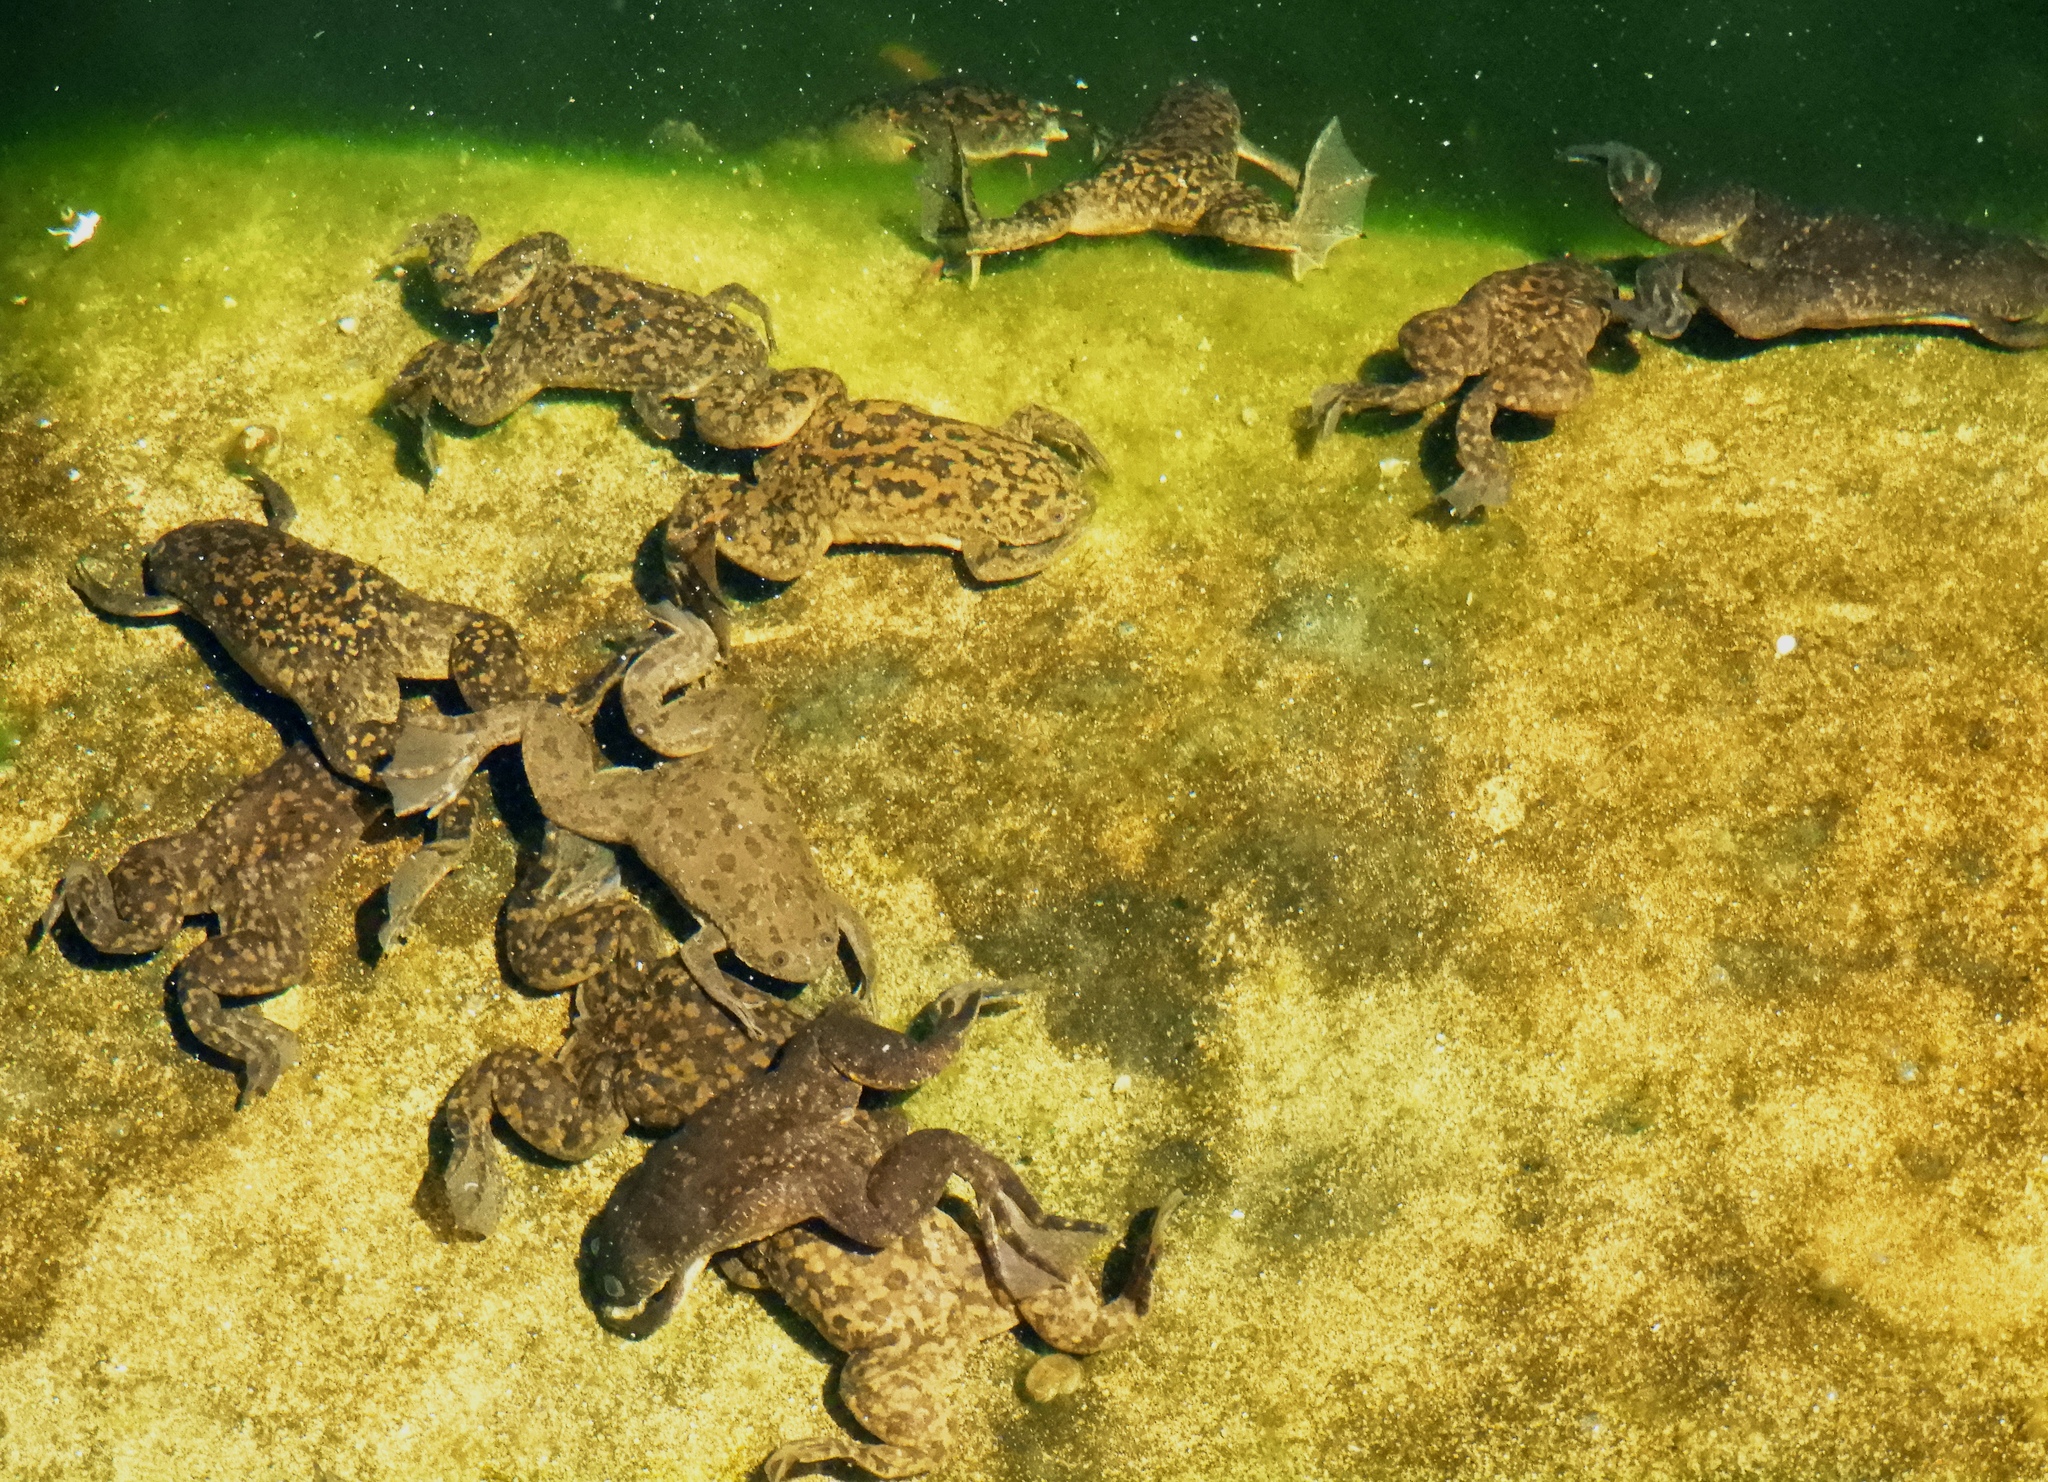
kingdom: Animalia
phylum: Chordata
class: Amphibia
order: Anura
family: Pipidae
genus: Xenopus
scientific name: Xenopus laevis
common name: African clawed frog
